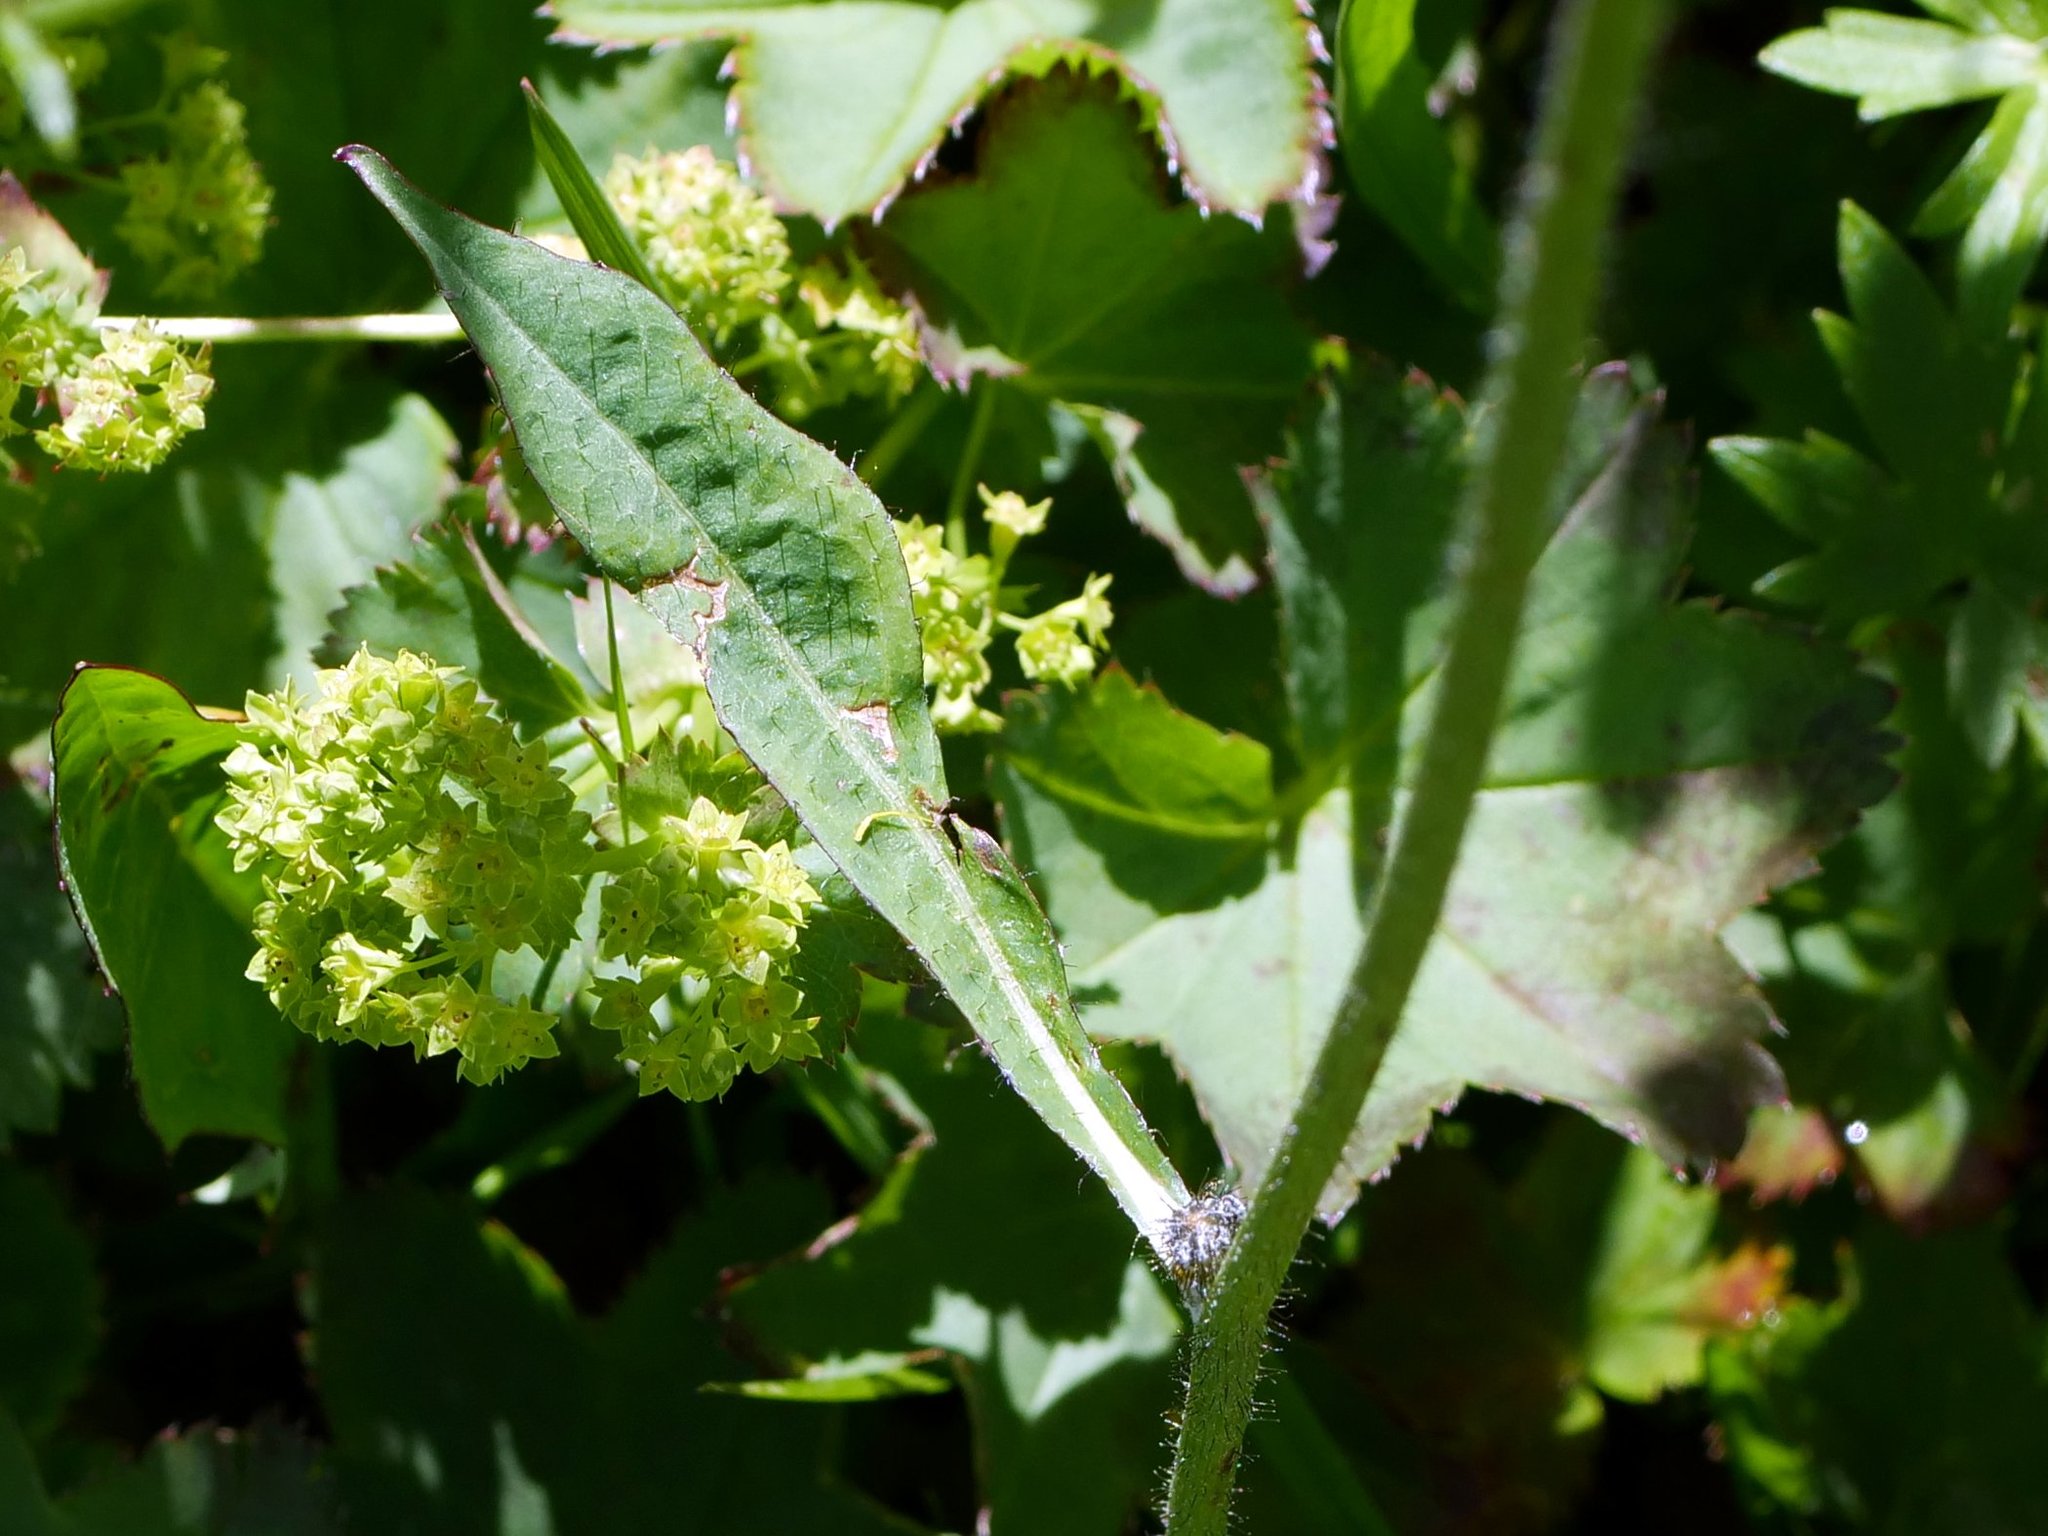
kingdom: Plantae
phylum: Tracheophyta
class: Magnoliopsida
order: Asterales
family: Asteraceae
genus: Willemetia
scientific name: Willemetia stipitata
